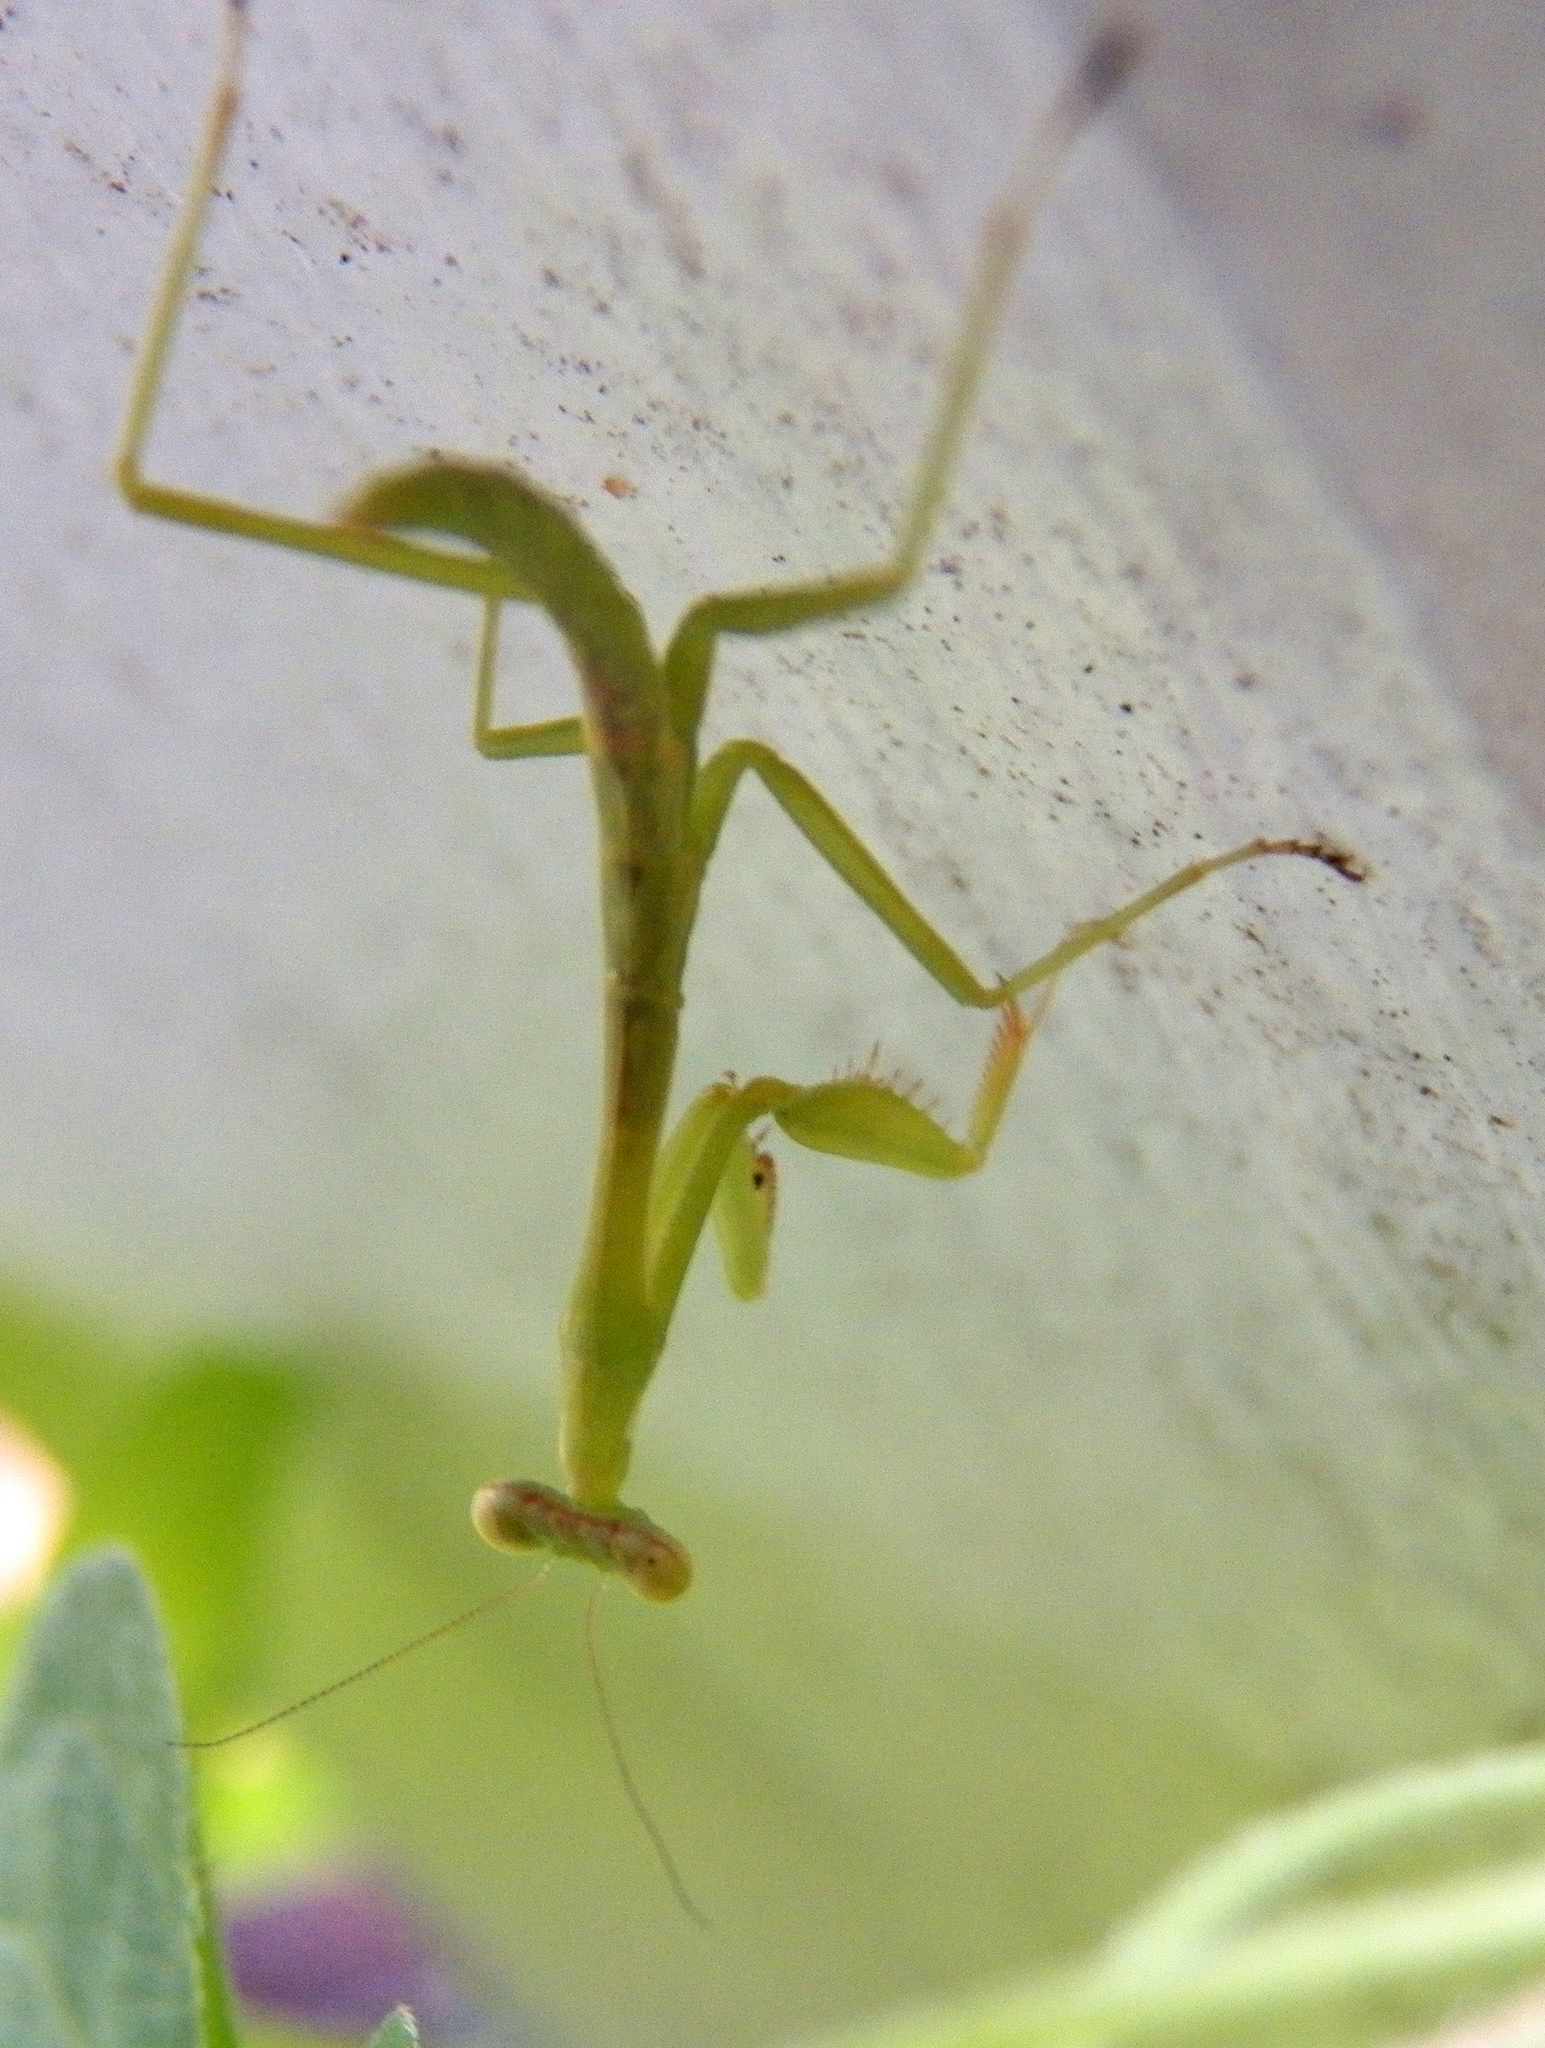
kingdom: Animalia
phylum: Arthropoda
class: Insecta
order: Mantodea
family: Mantidae
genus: Stagmomantis
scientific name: Stagmomantis carolina
